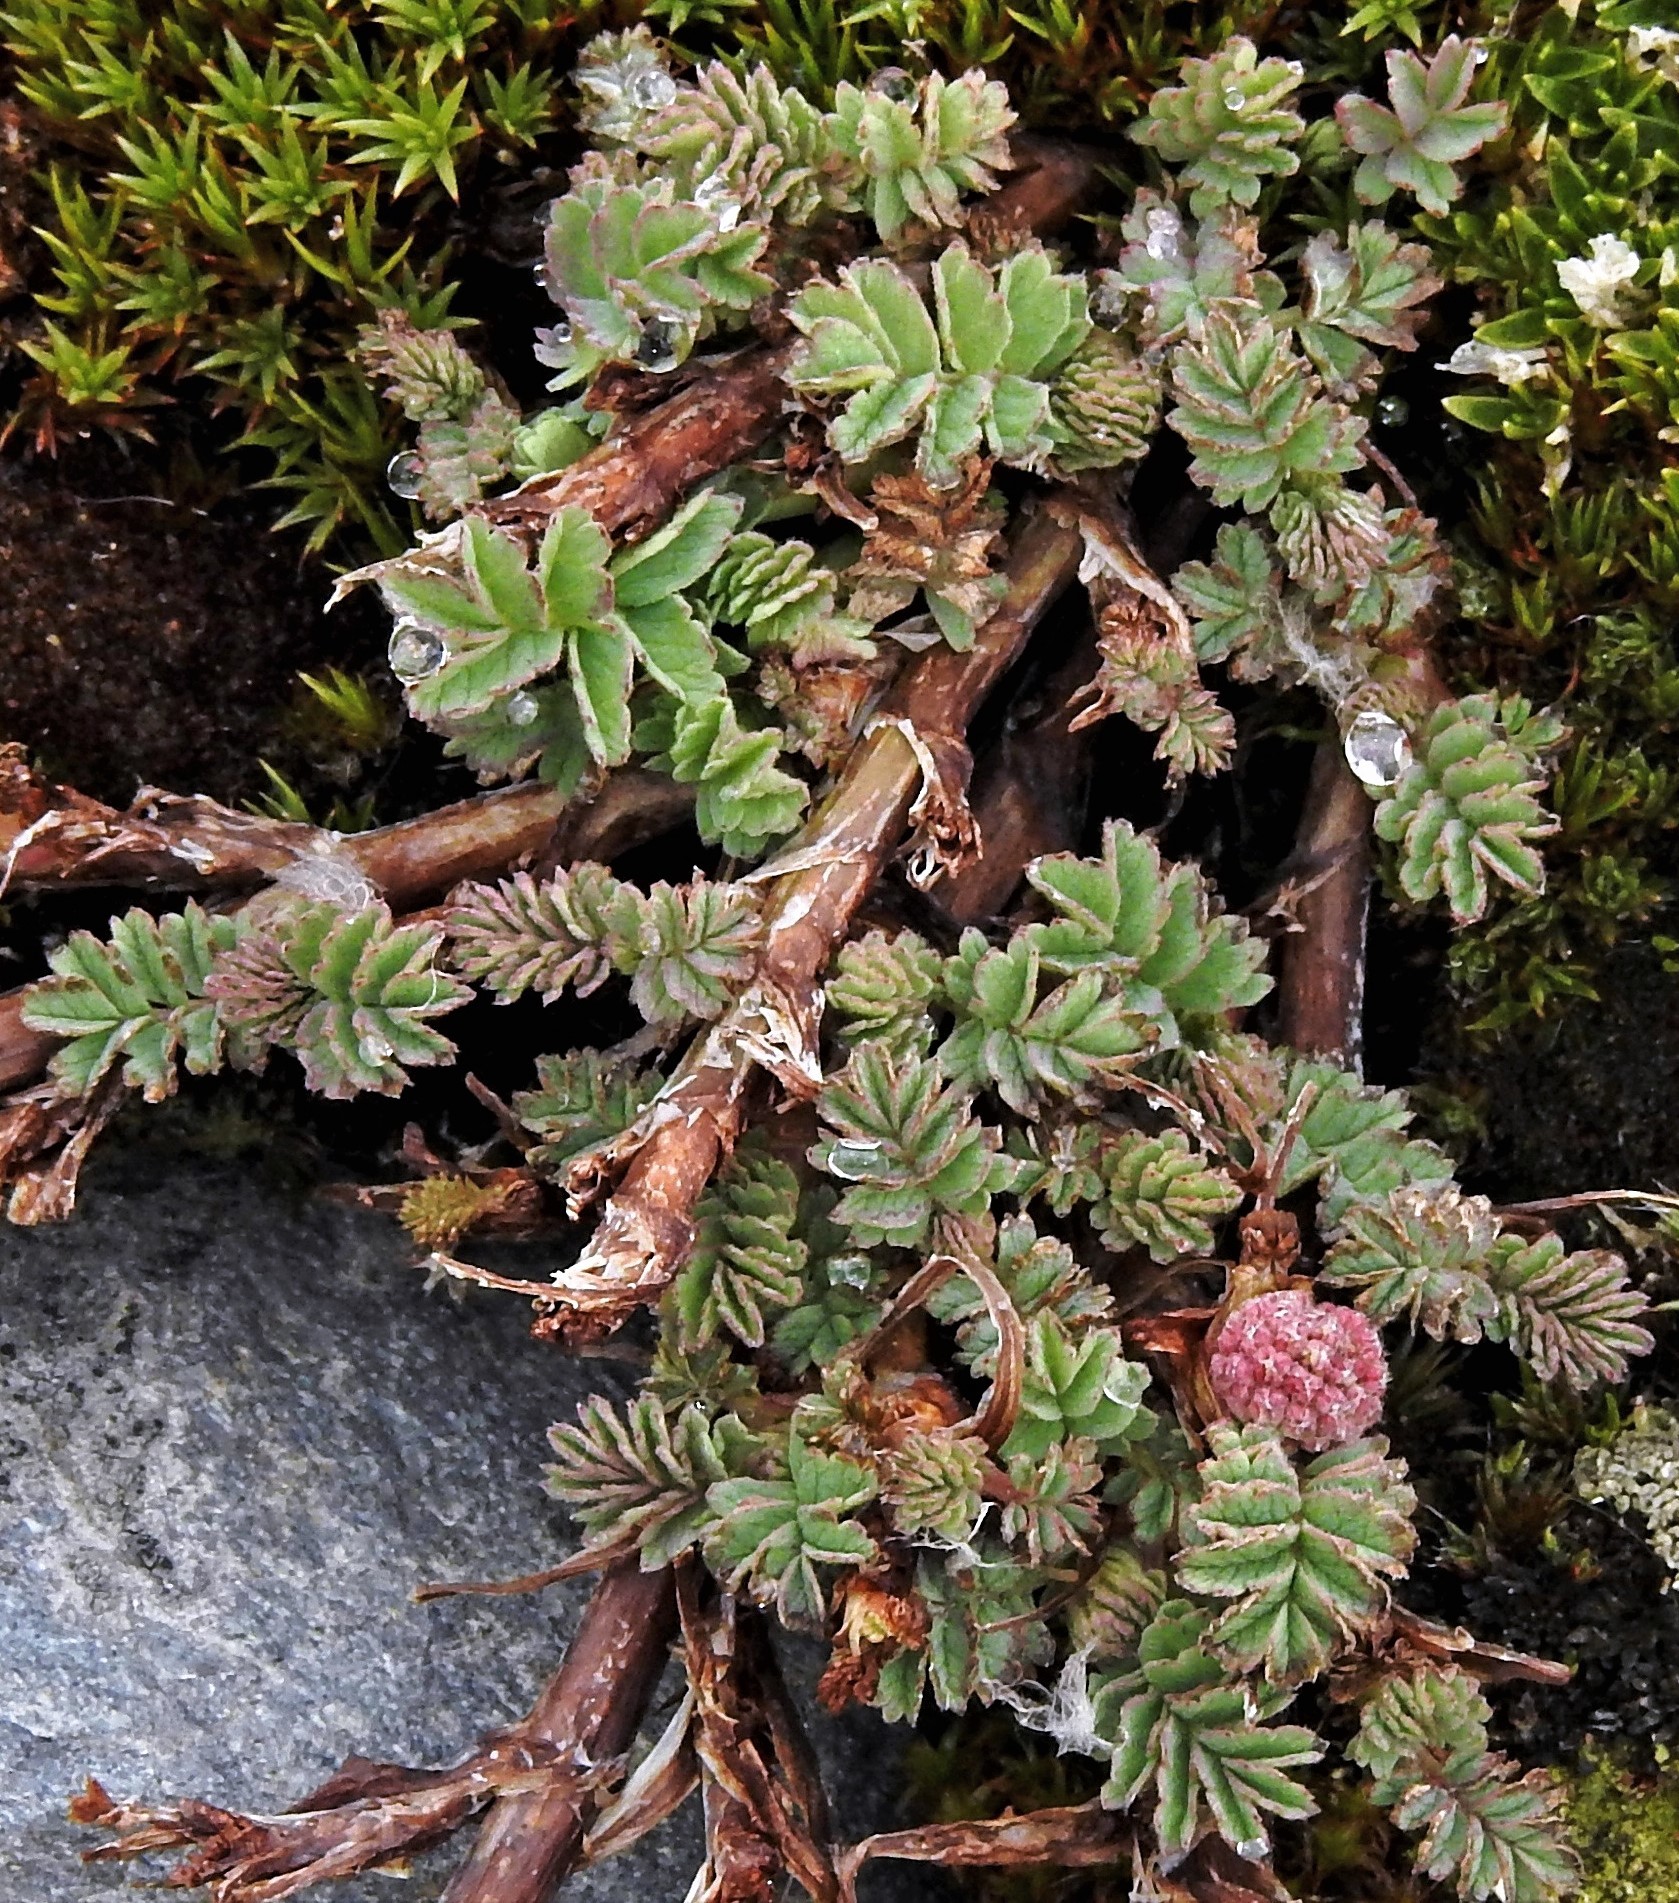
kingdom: Plantae
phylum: Tracheophyta
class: Magnoliopsida
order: Rosales
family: Rosaceae
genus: Acaena
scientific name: Acaena magellanica
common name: New zealand burr
